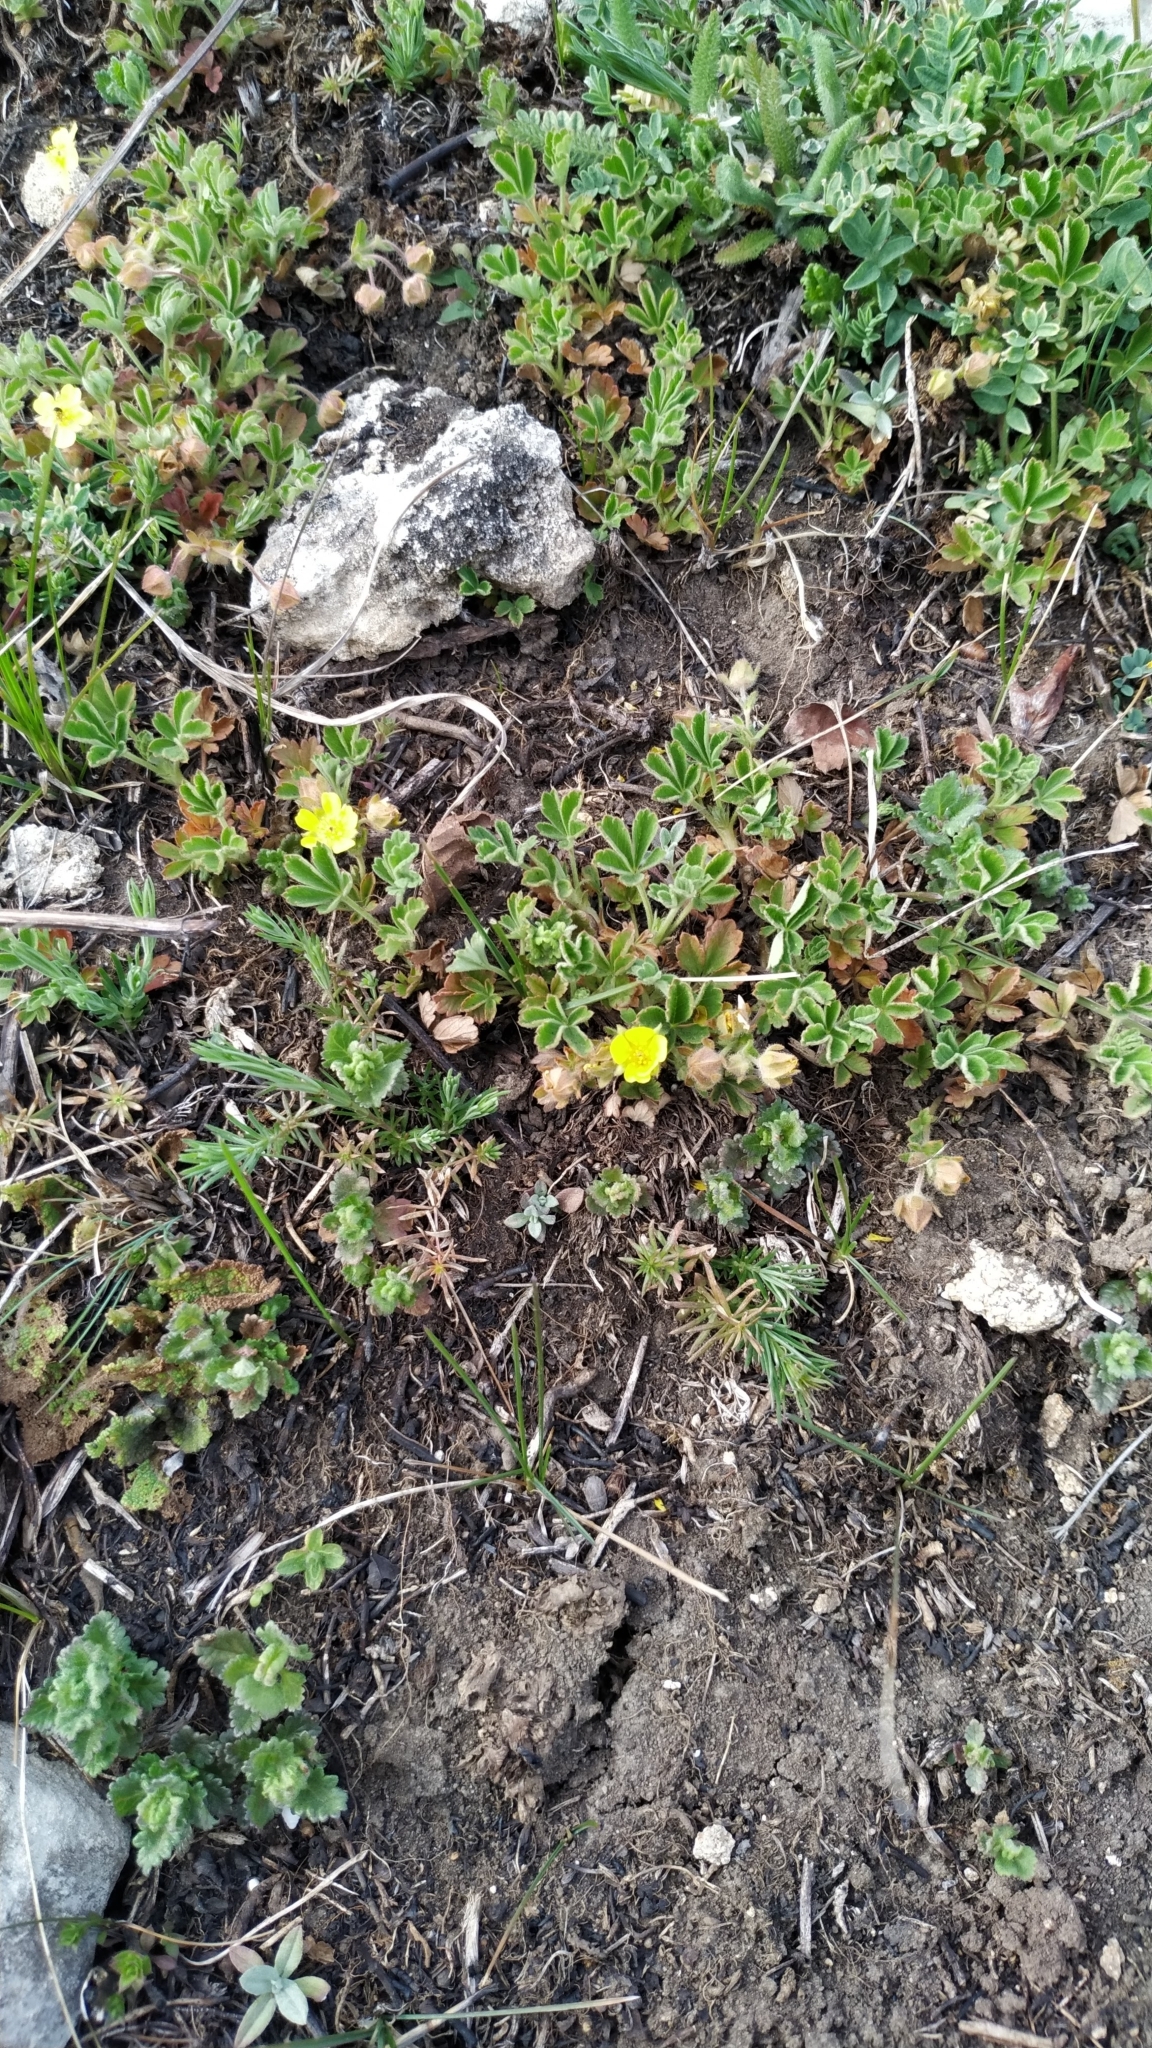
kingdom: Plantae
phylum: Tracheophyta
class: Magnoliopsida
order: Rosales
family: Rosaceae
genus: Potentilla
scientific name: Potentilla incana
